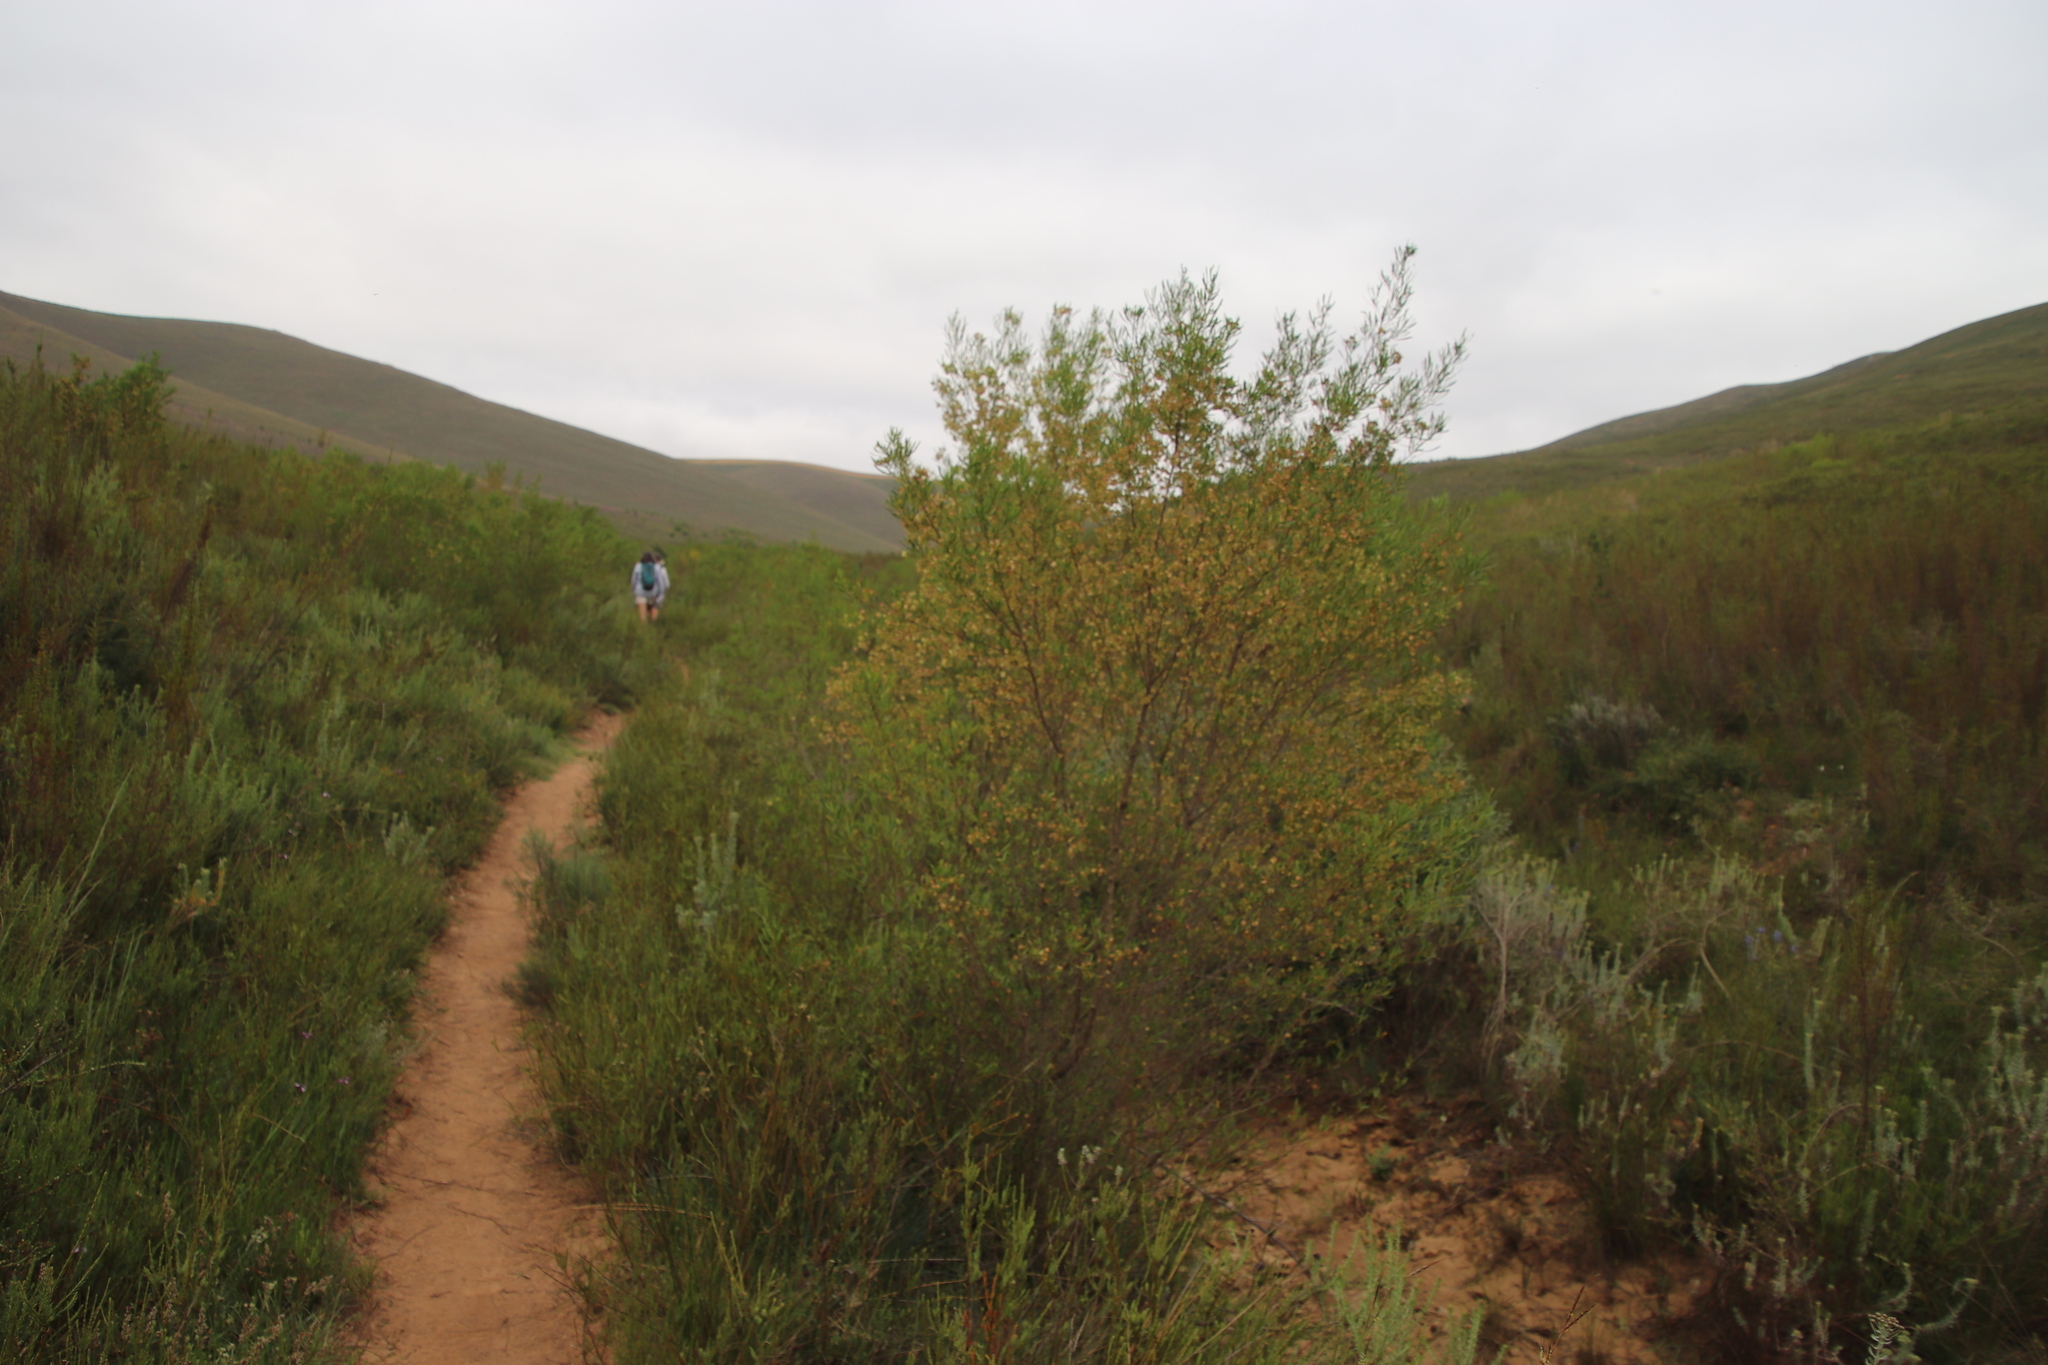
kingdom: Plantae
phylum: Tracheophyta
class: Magnoliopsida
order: Sapindales
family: Sapindaceae
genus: Dodonaea
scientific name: Dodonaea viscosa
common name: Hopbush
